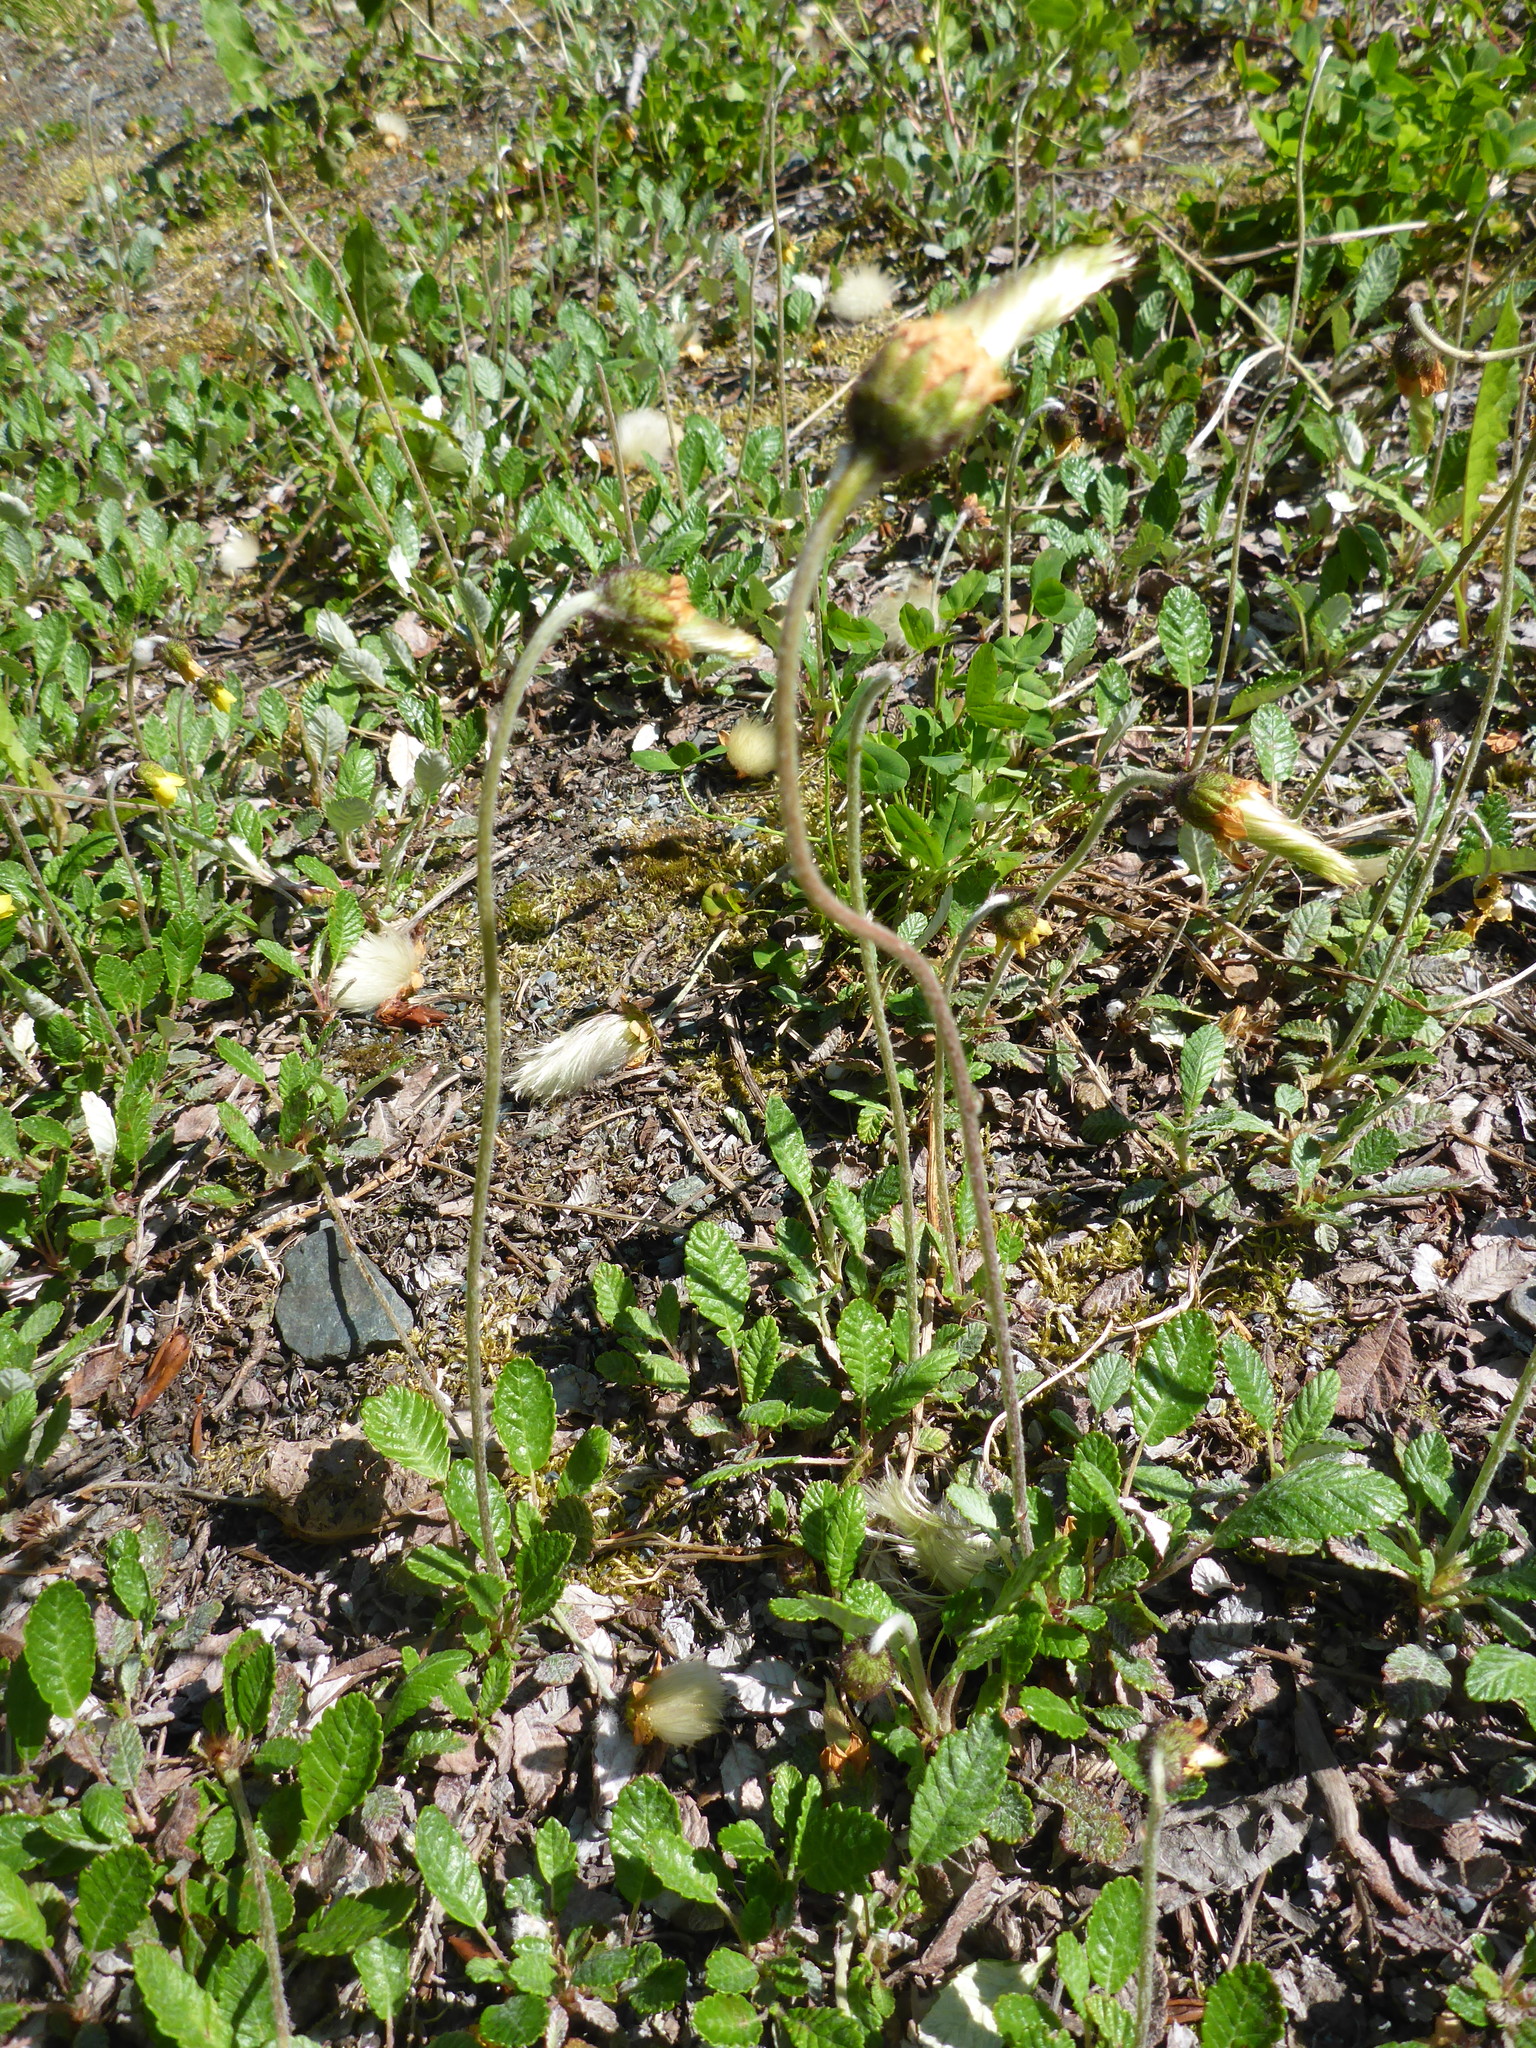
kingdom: Plantae
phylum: Tracheophyta
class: Magnoliopsida
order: Rosales
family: Rosaceae
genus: Dryas
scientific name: Dryas drummondii
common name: Drummond's dryad
